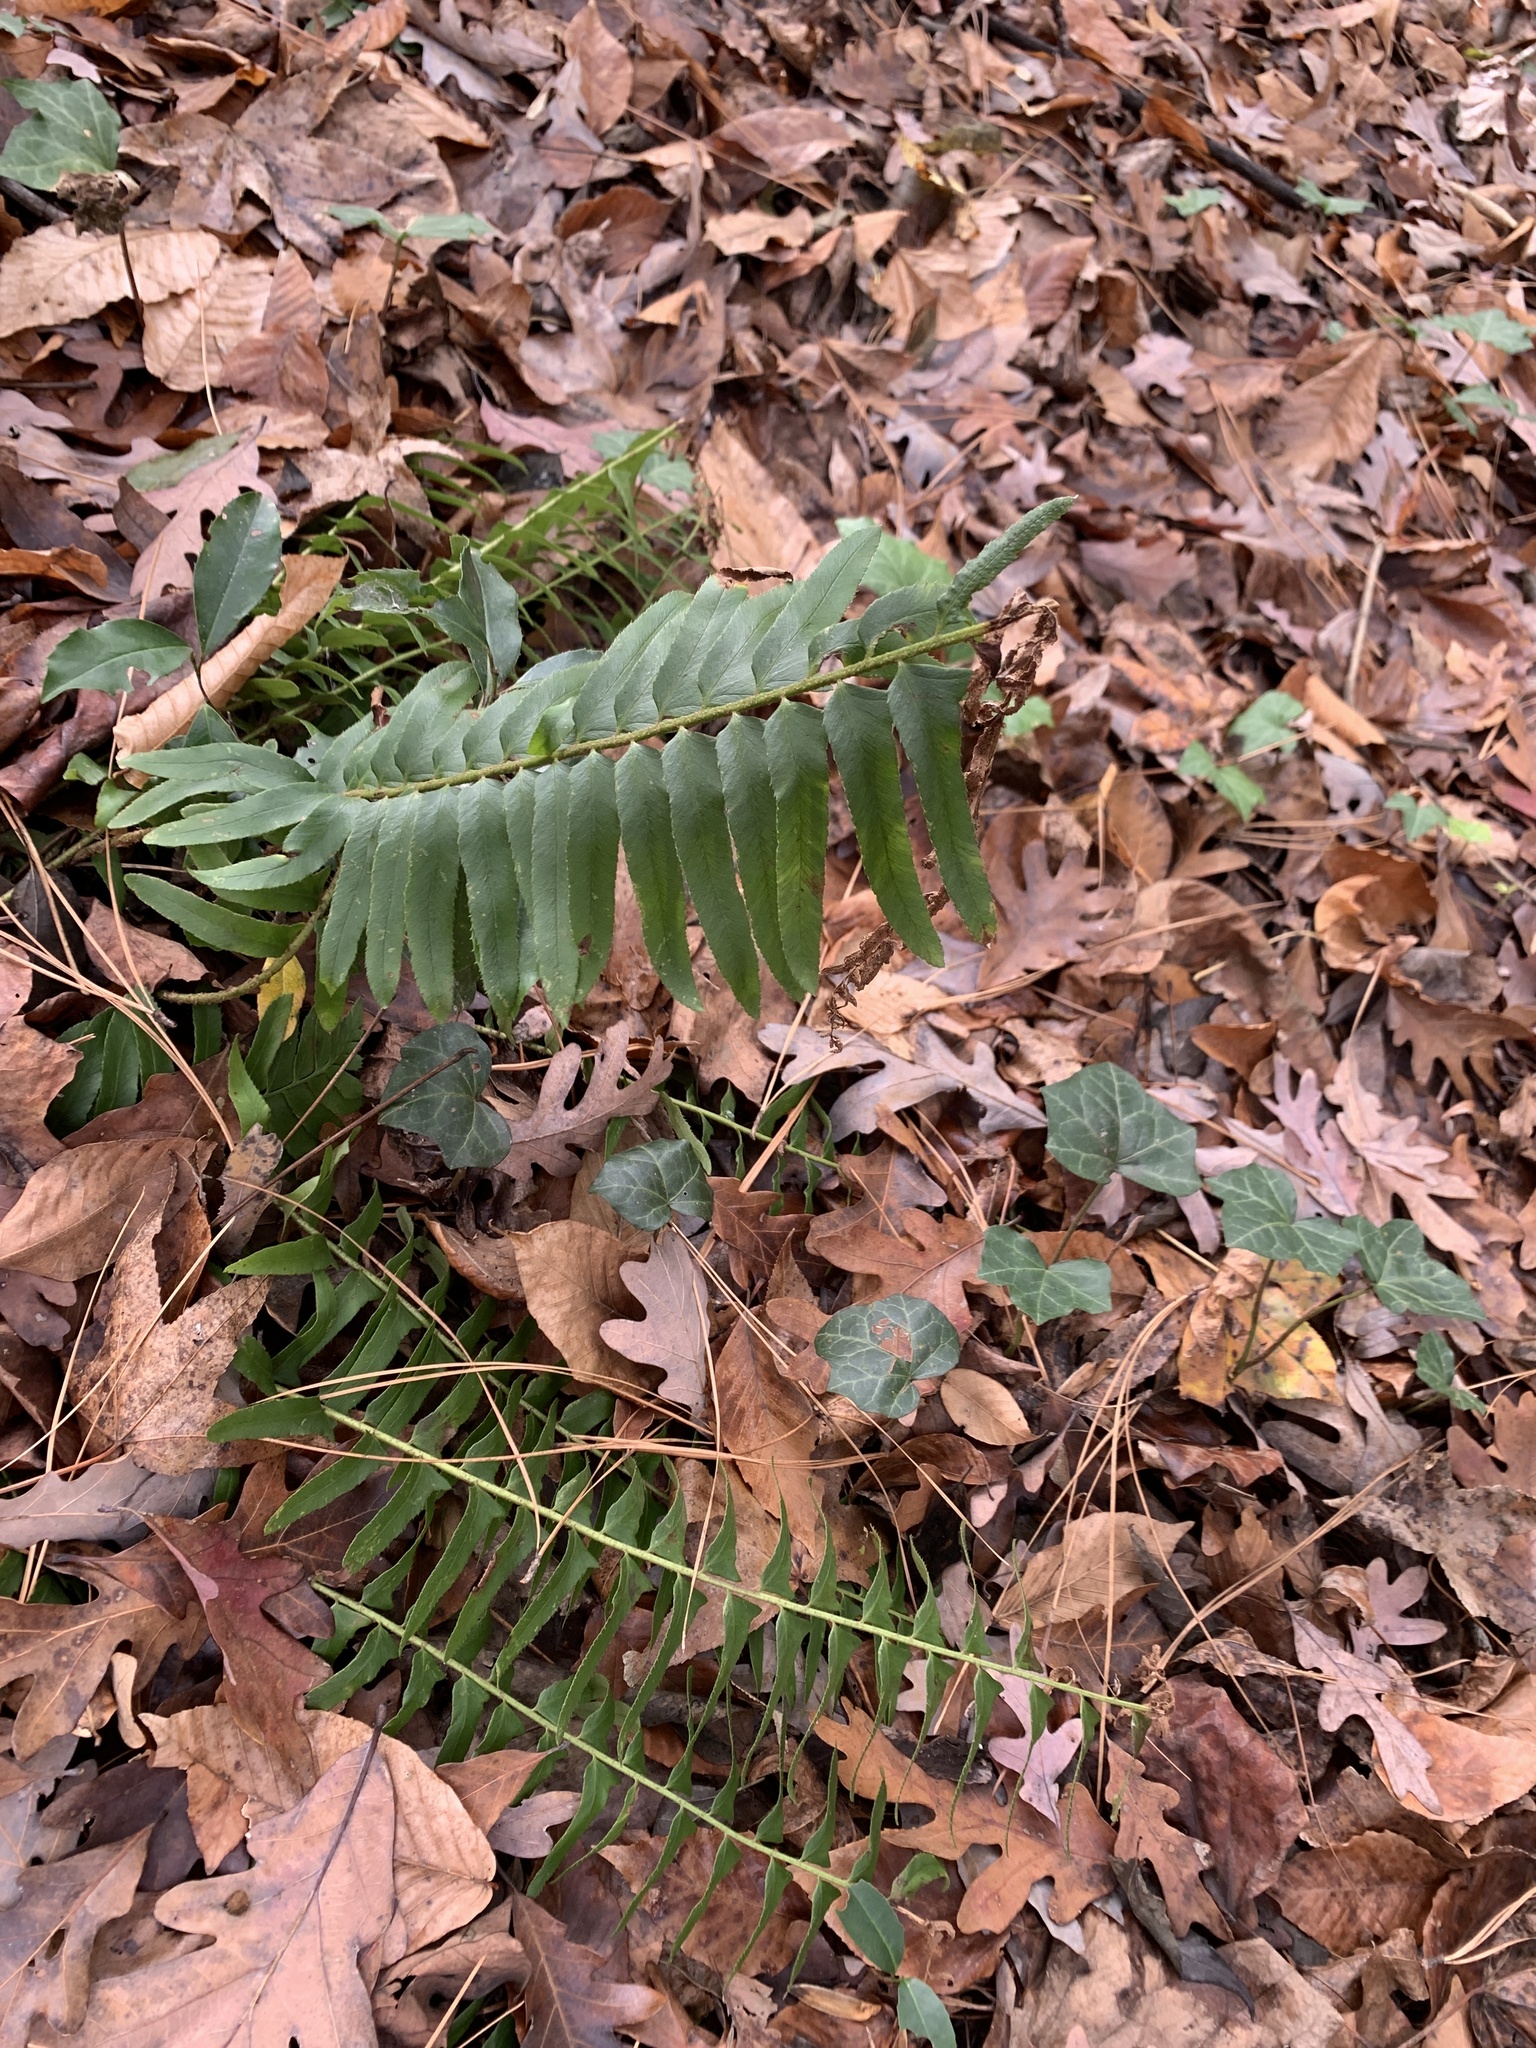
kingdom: Plantae
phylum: Tracheophyta
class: Polypodiopsida
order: Polypodiales
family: Dryopteridaceae
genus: Polystichum
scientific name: Polystichum acrostichoides
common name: Christmas fern
